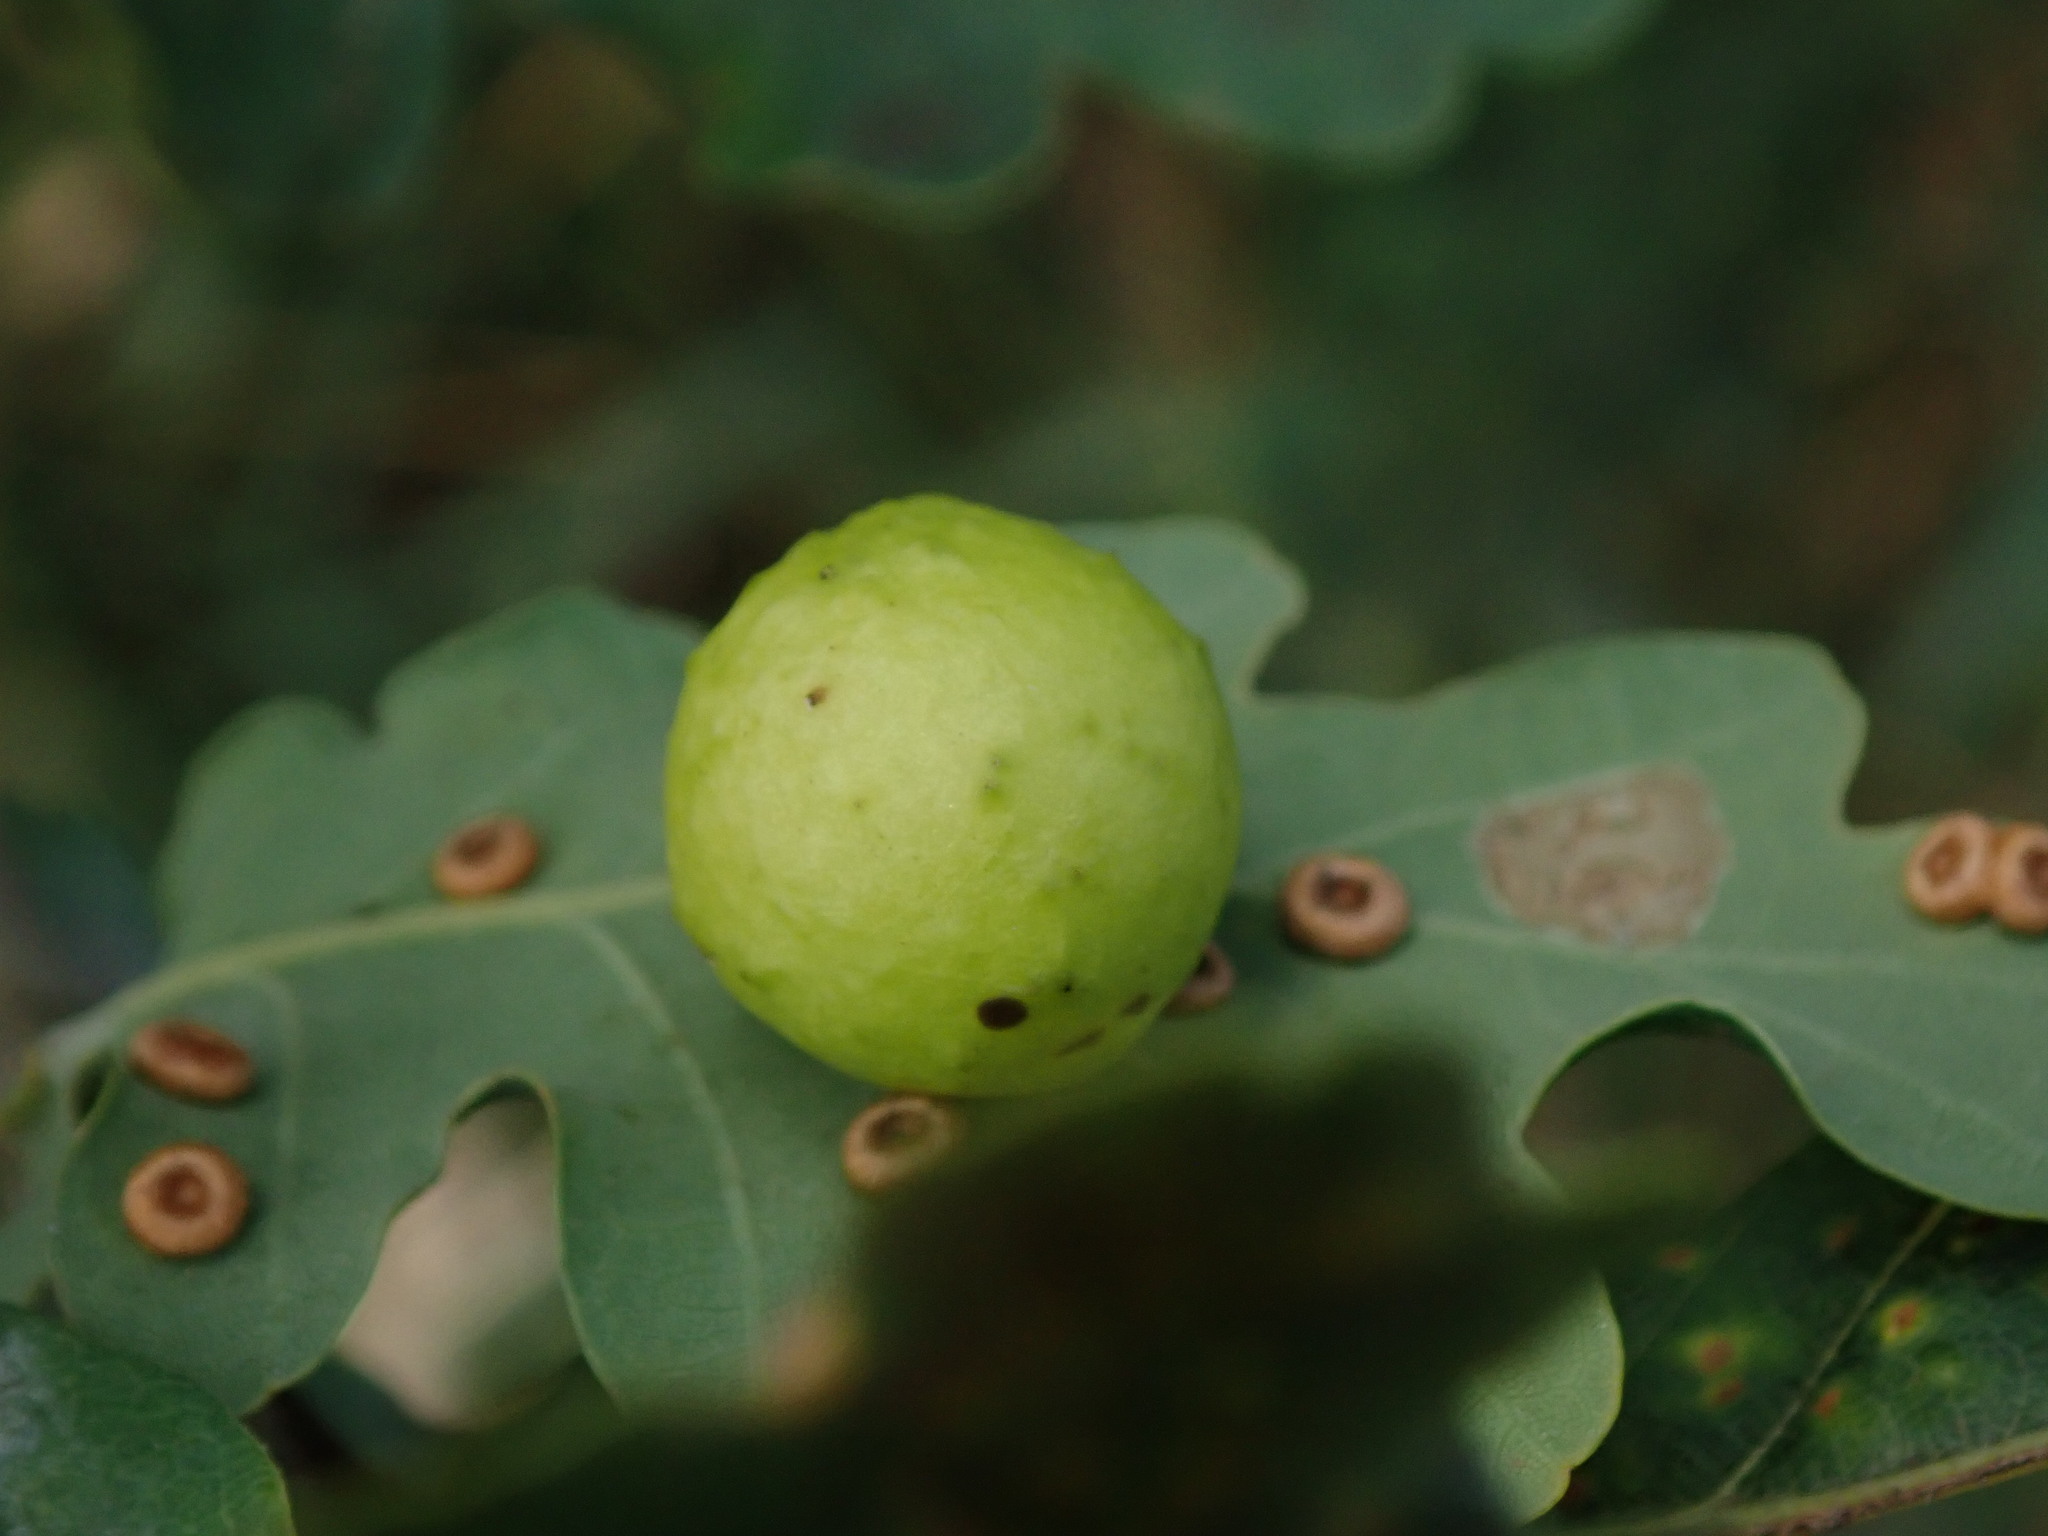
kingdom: Animalia
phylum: Arthropoda
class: Insecta
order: Hymenoptera
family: Cynipidae
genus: Cynips
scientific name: Cynips quercusfolii
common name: Cherry gall
